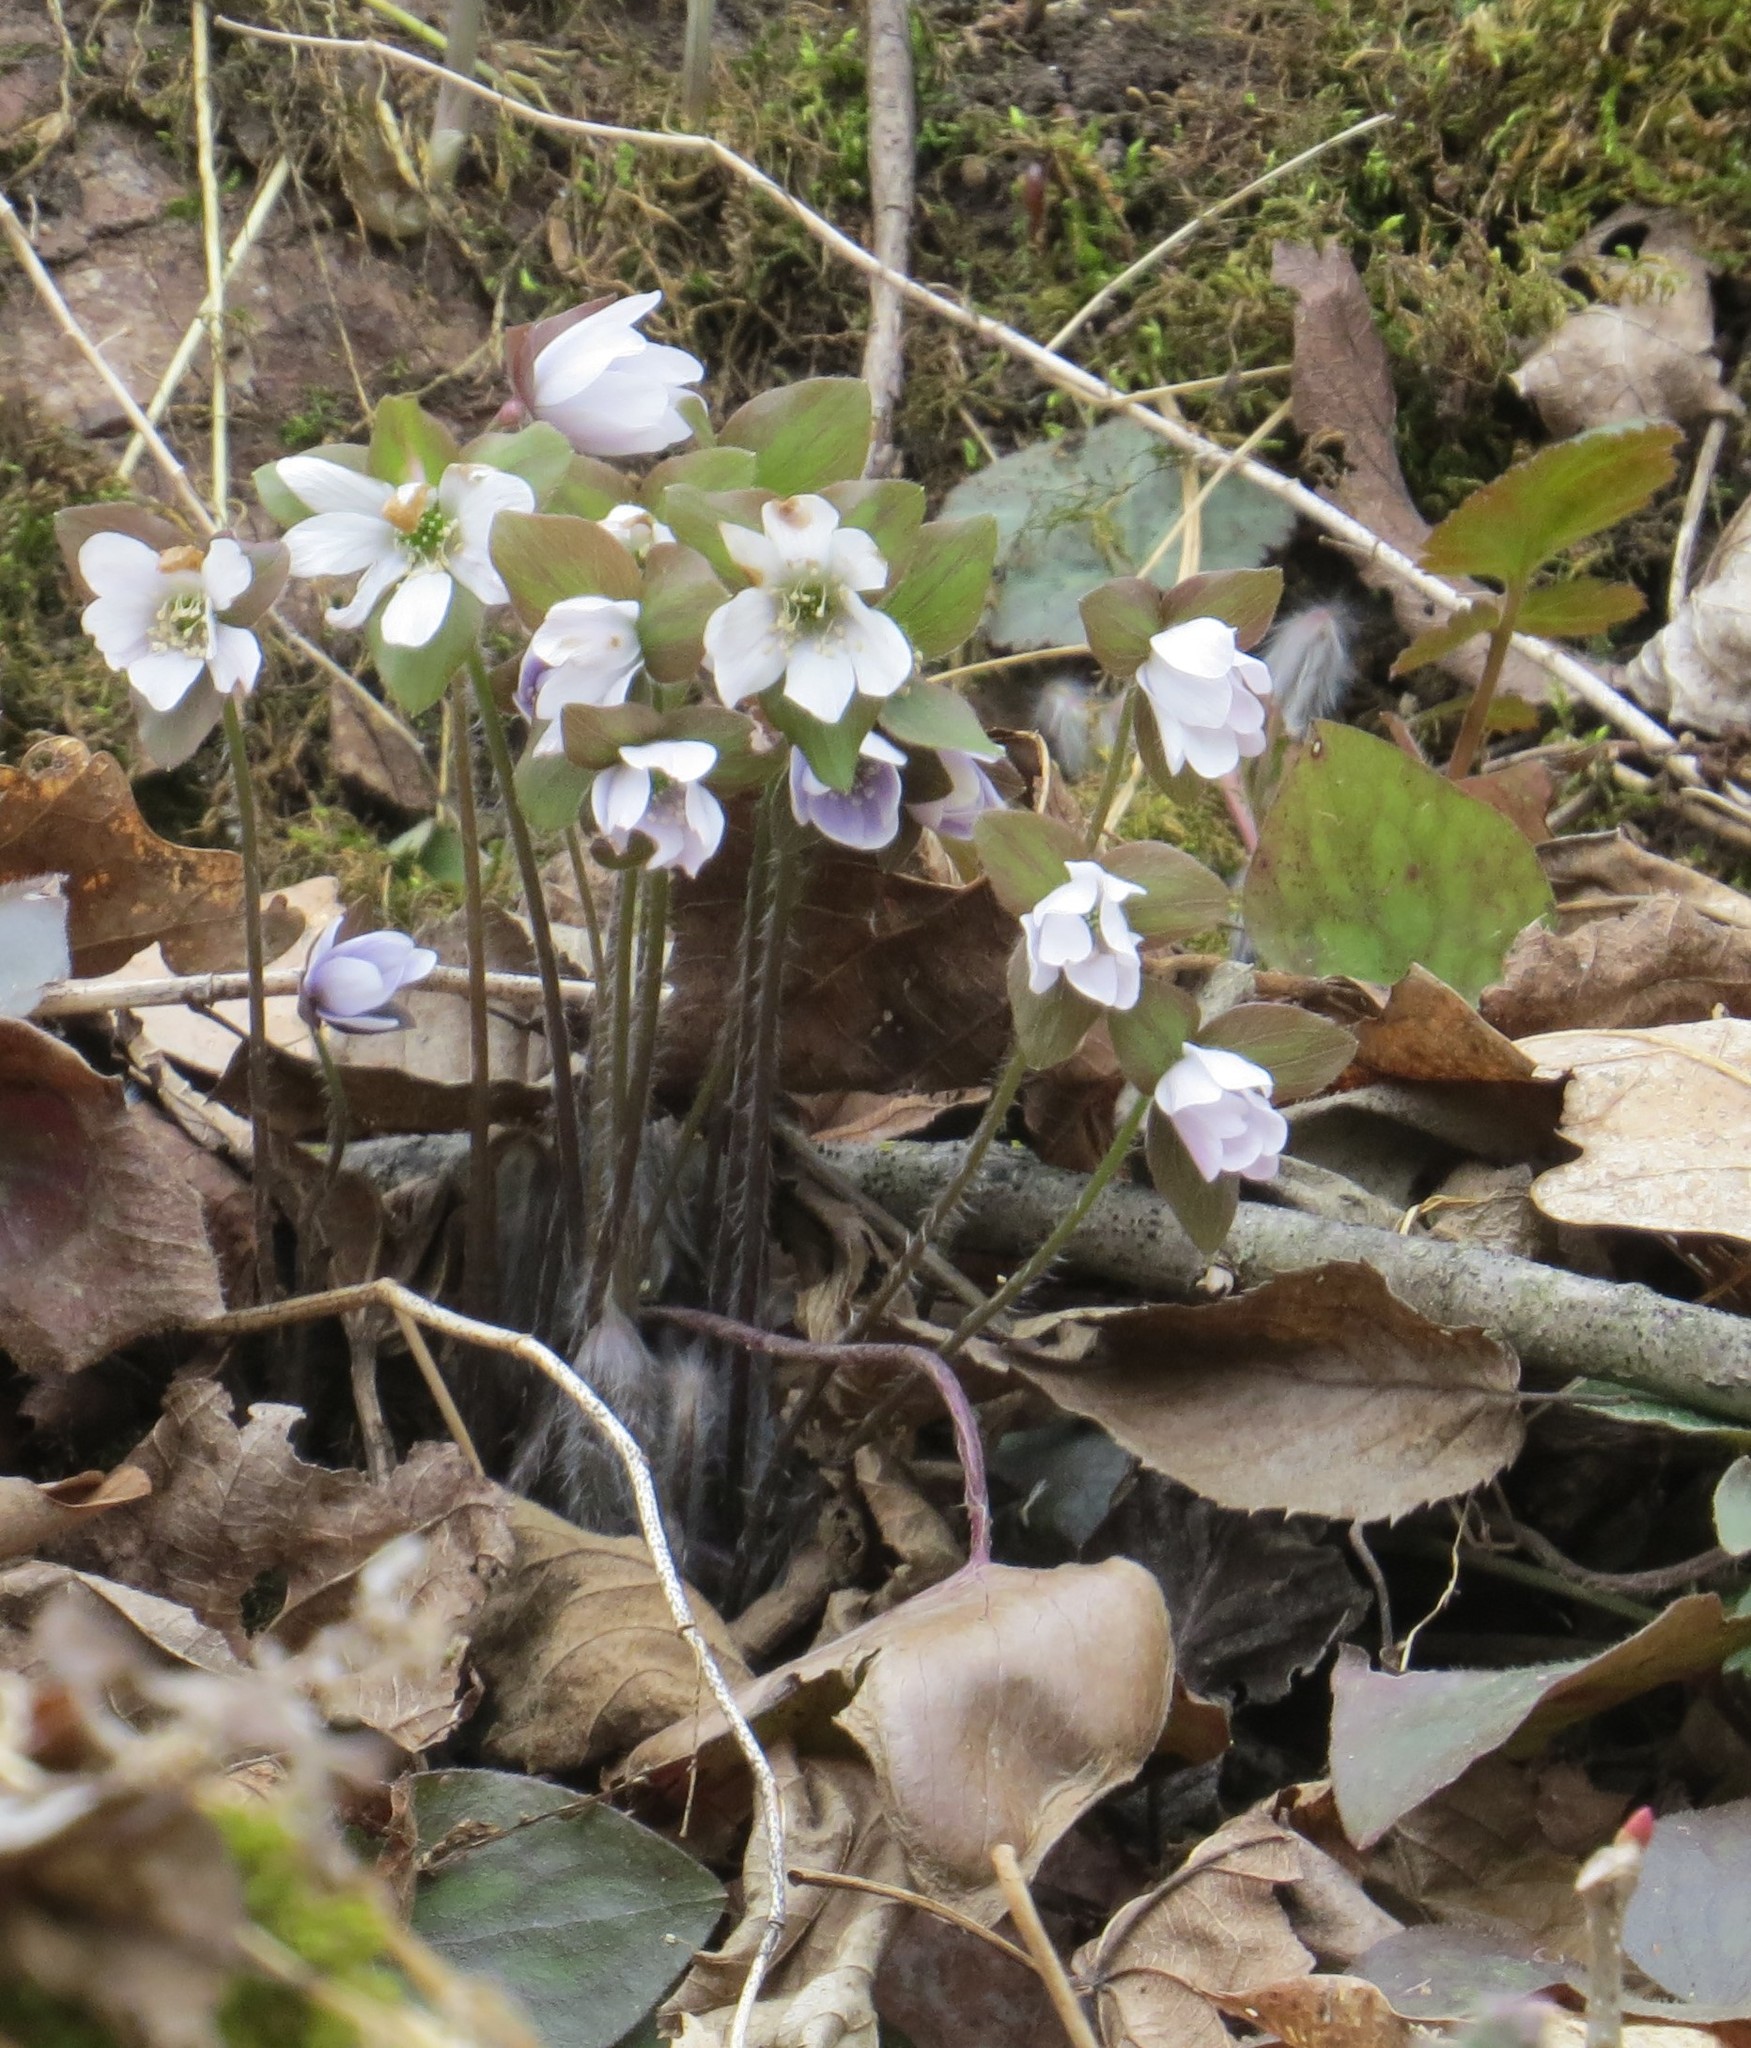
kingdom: Plantae
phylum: Tracheophyta
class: Magnoliopsida
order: Ranunculales
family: Ranunculaceae
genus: Hepatica
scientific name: Hepatica acutiloba
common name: Sharp-lobed hepatica
